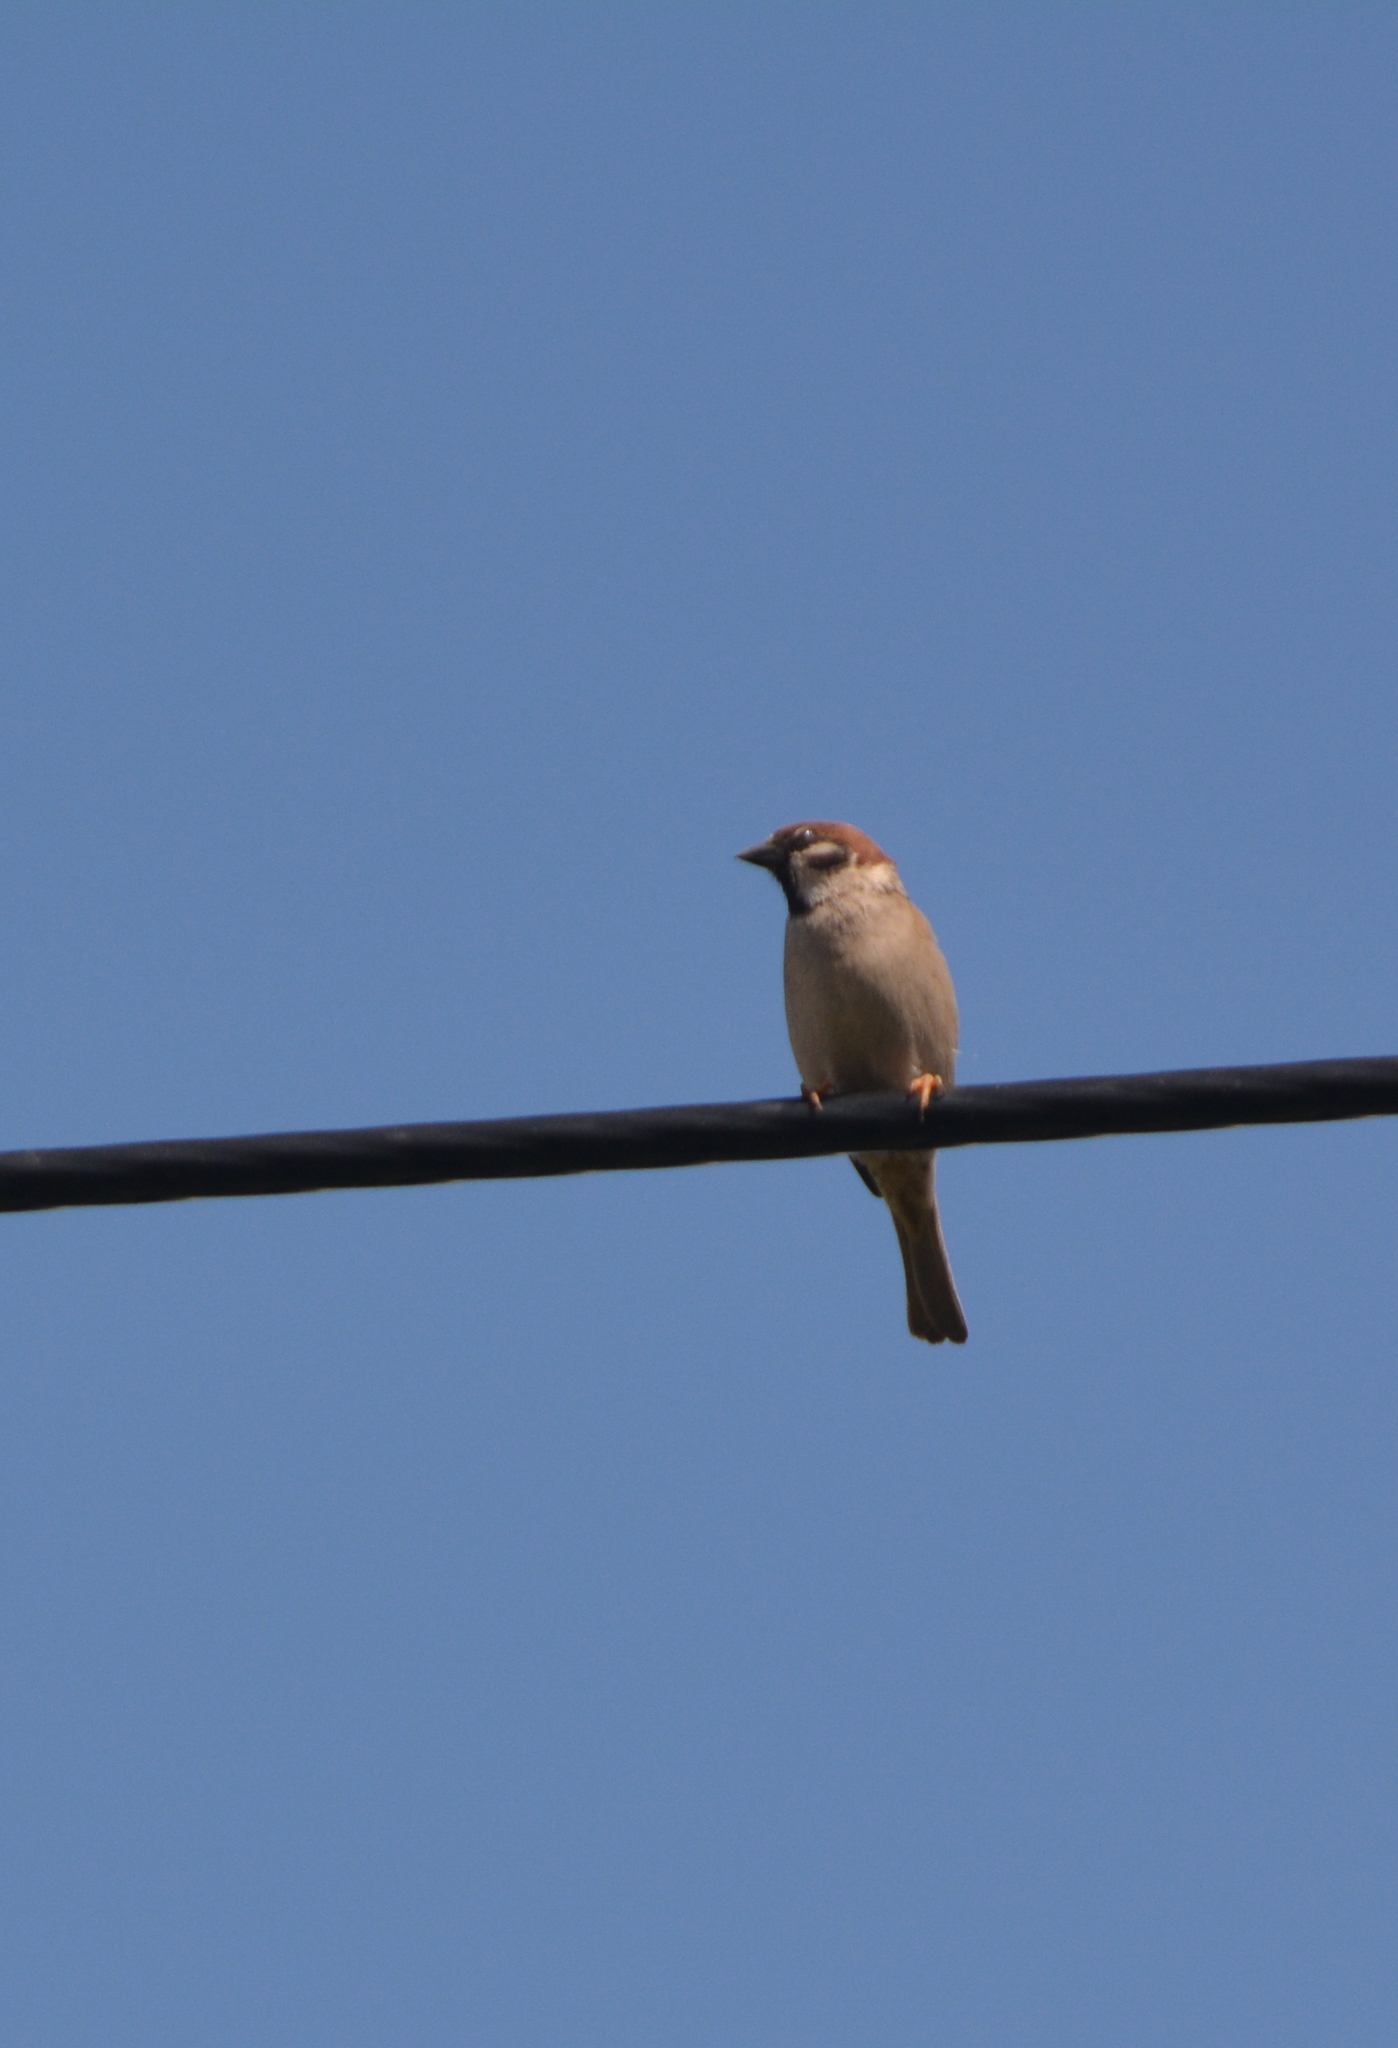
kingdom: Animalia
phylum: Chordata
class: Aves
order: Passeriformes
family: Passeridae
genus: Passer
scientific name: Passer montanus
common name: Eurasian tree sparrow
